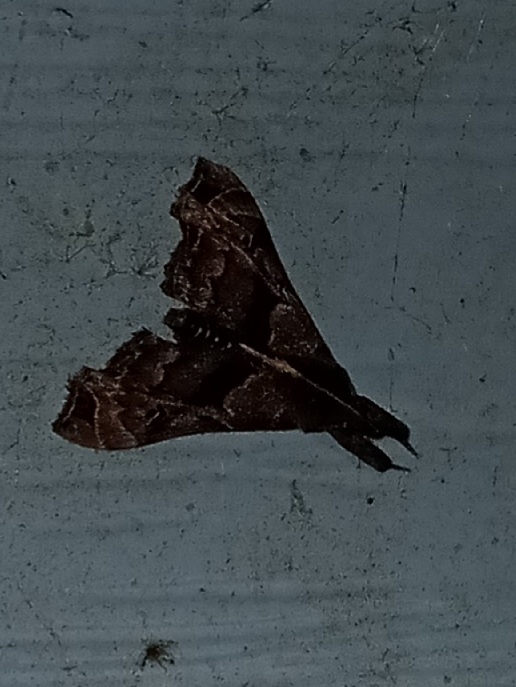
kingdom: Animalia
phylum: Arthropoda
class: Insecta
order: Lepidoptera
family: Erebidae
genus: Palthis
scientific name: Palthis asopialis
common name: Faint-spotted palthis moth
